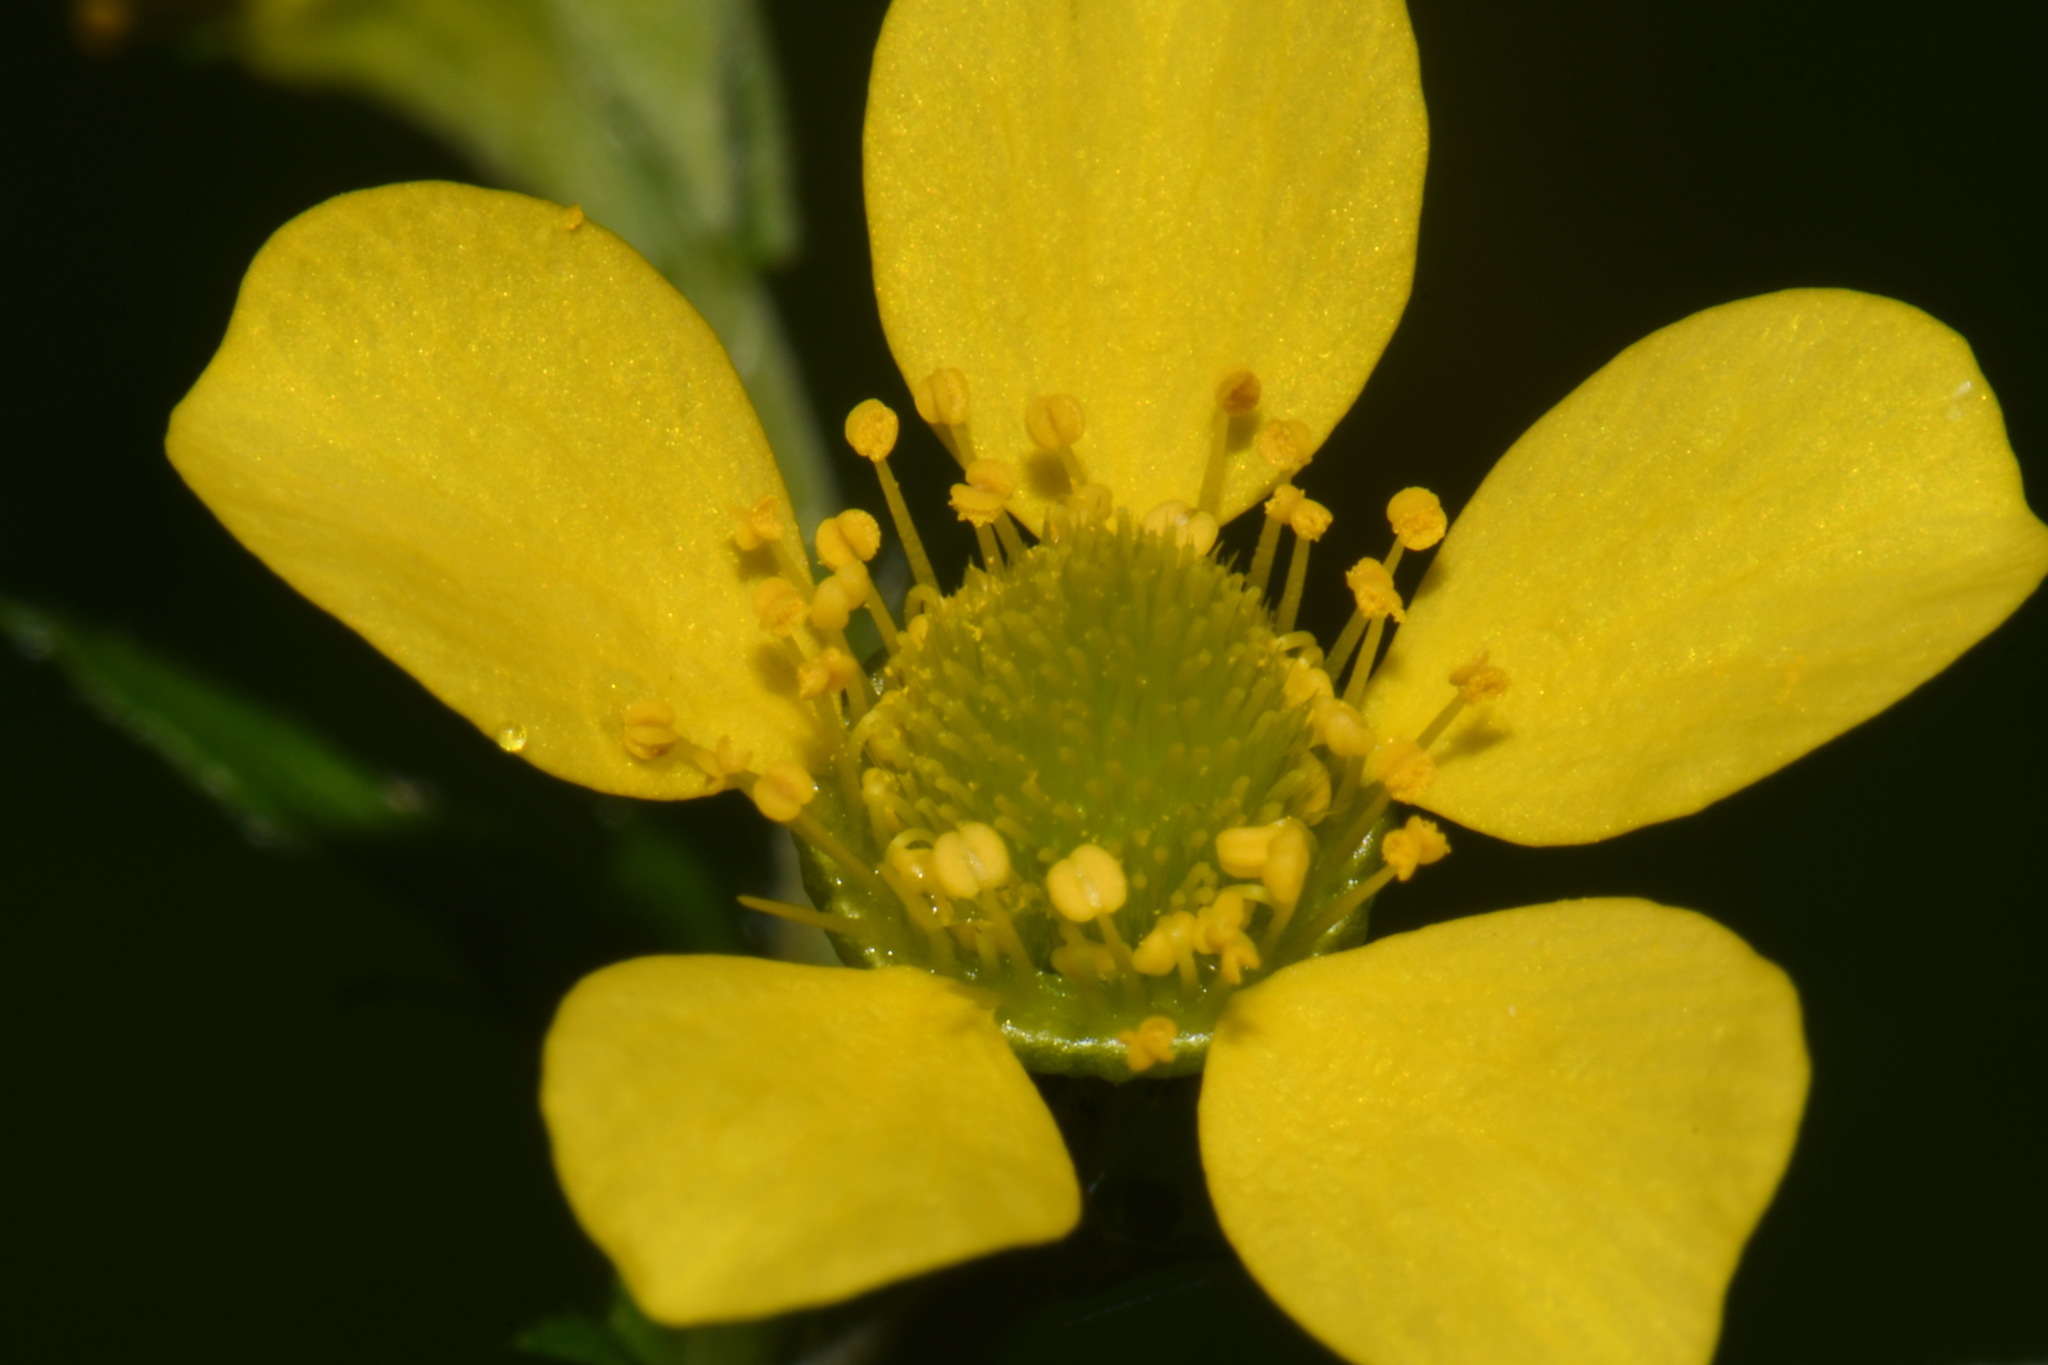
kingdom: Plantae
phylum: Tracheophyta
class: Magnoliopsida
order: Rosales
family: Rosaceae
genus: Geum
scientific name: Geum macrophyllum
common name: Large-leaved avens
